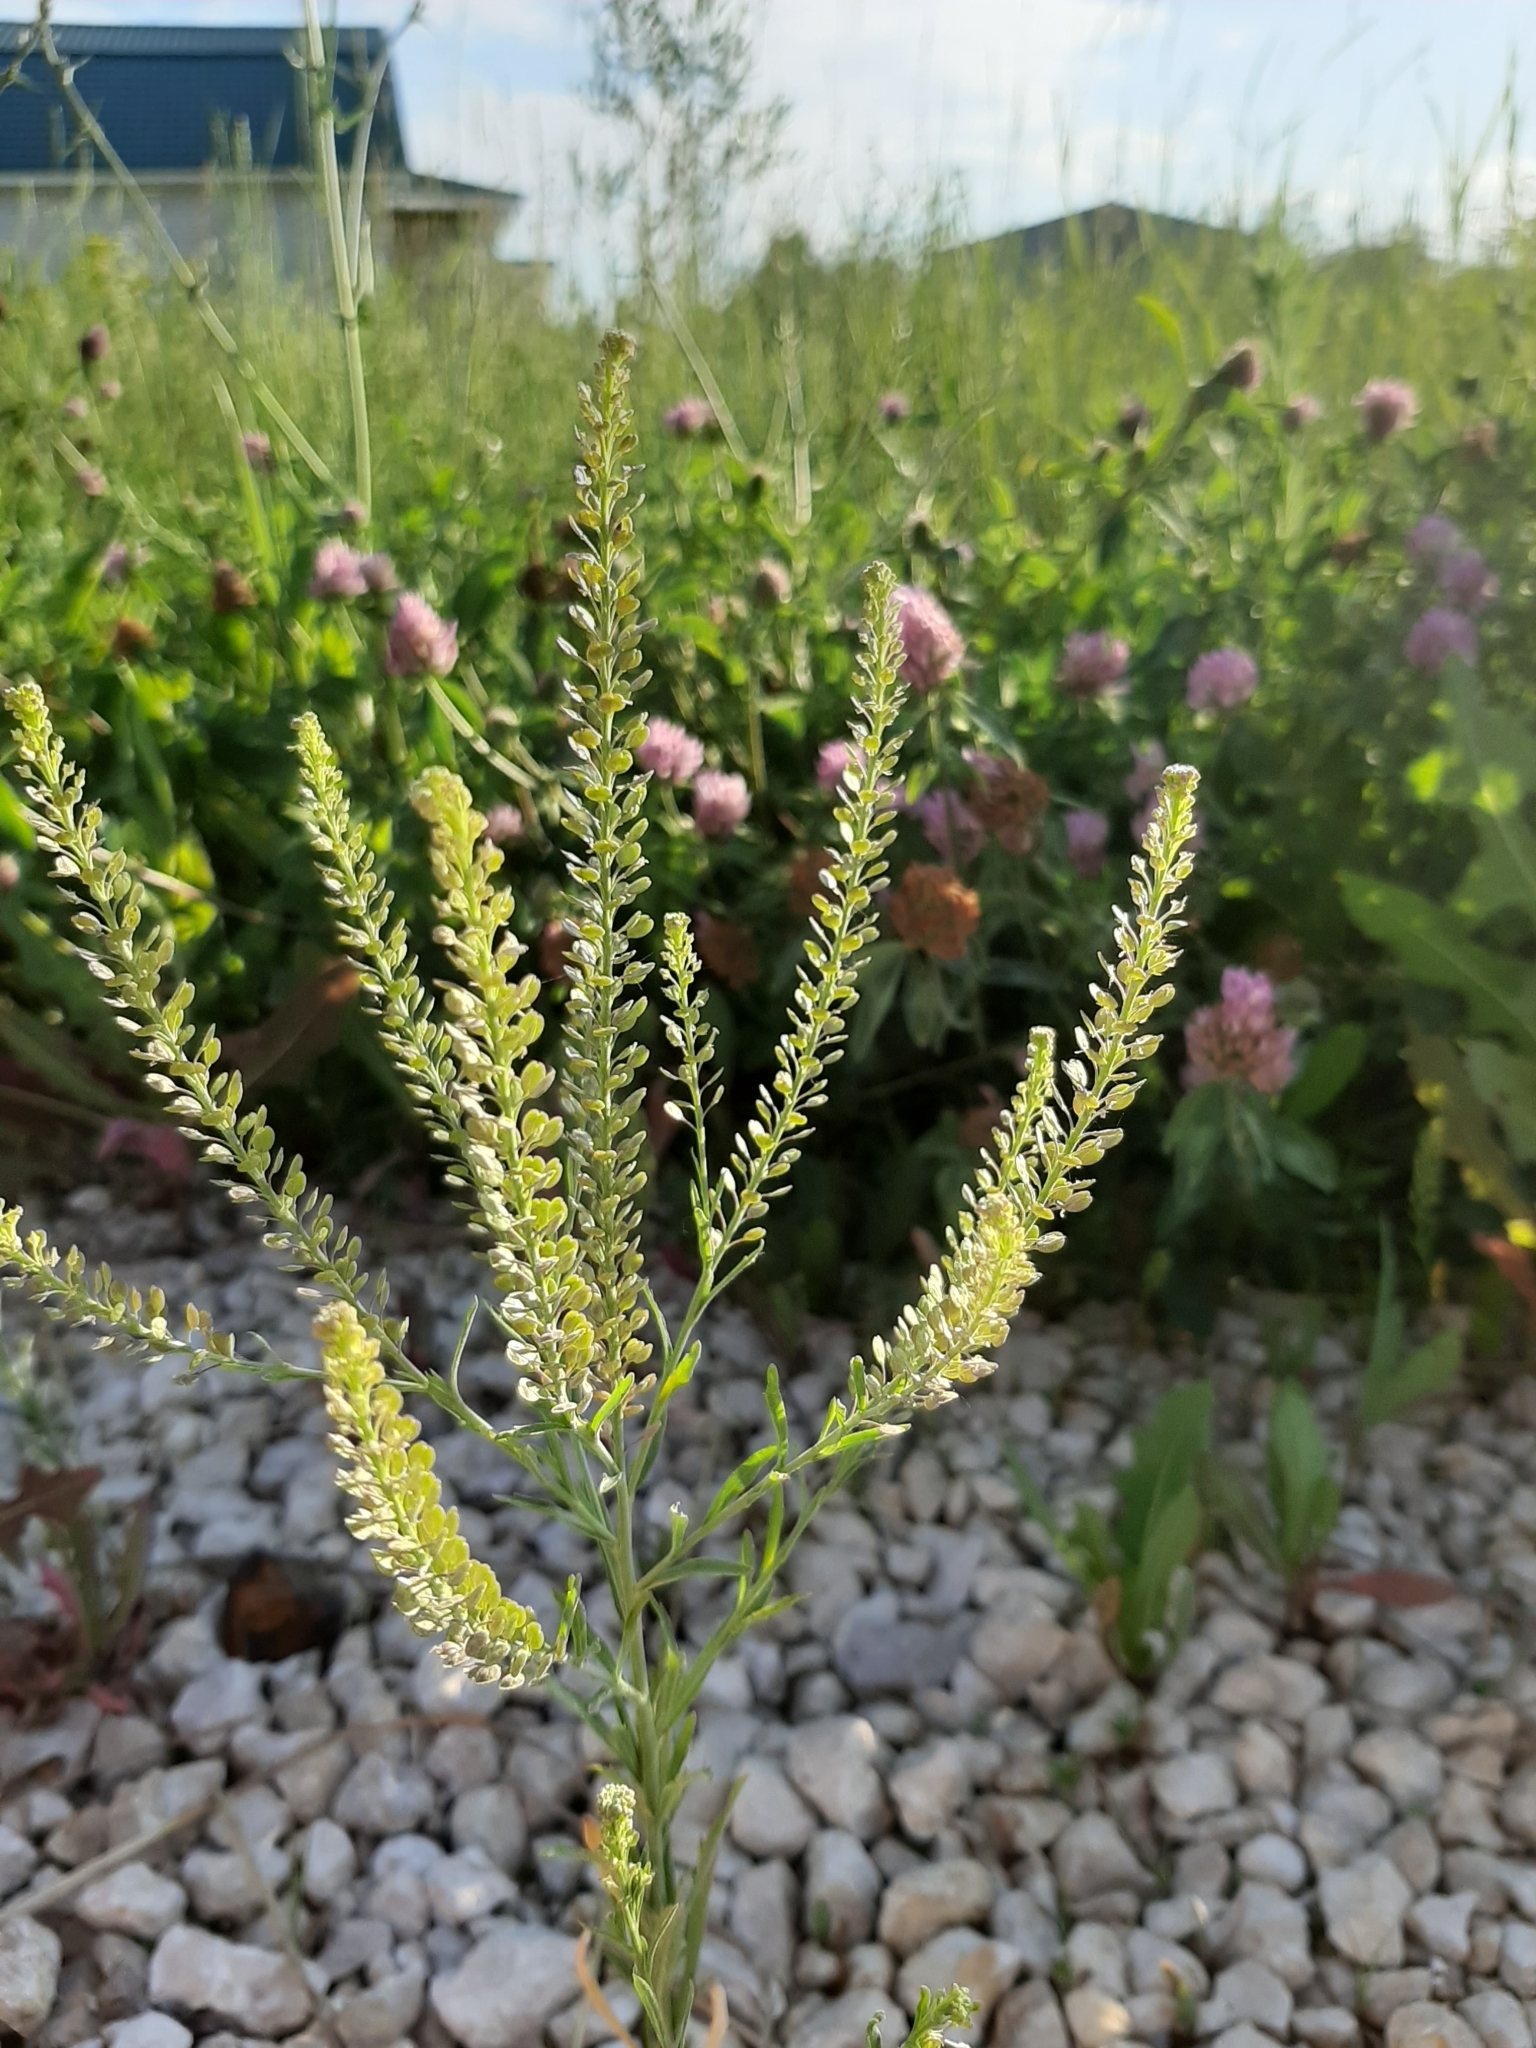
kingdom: Plantae
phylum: Tracheophyta
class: Magnoliopsida
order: Brassicales
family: Brassicaceae
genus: Lepidium
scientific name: Lepidium densiflorum
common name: Miner's pepperwort
